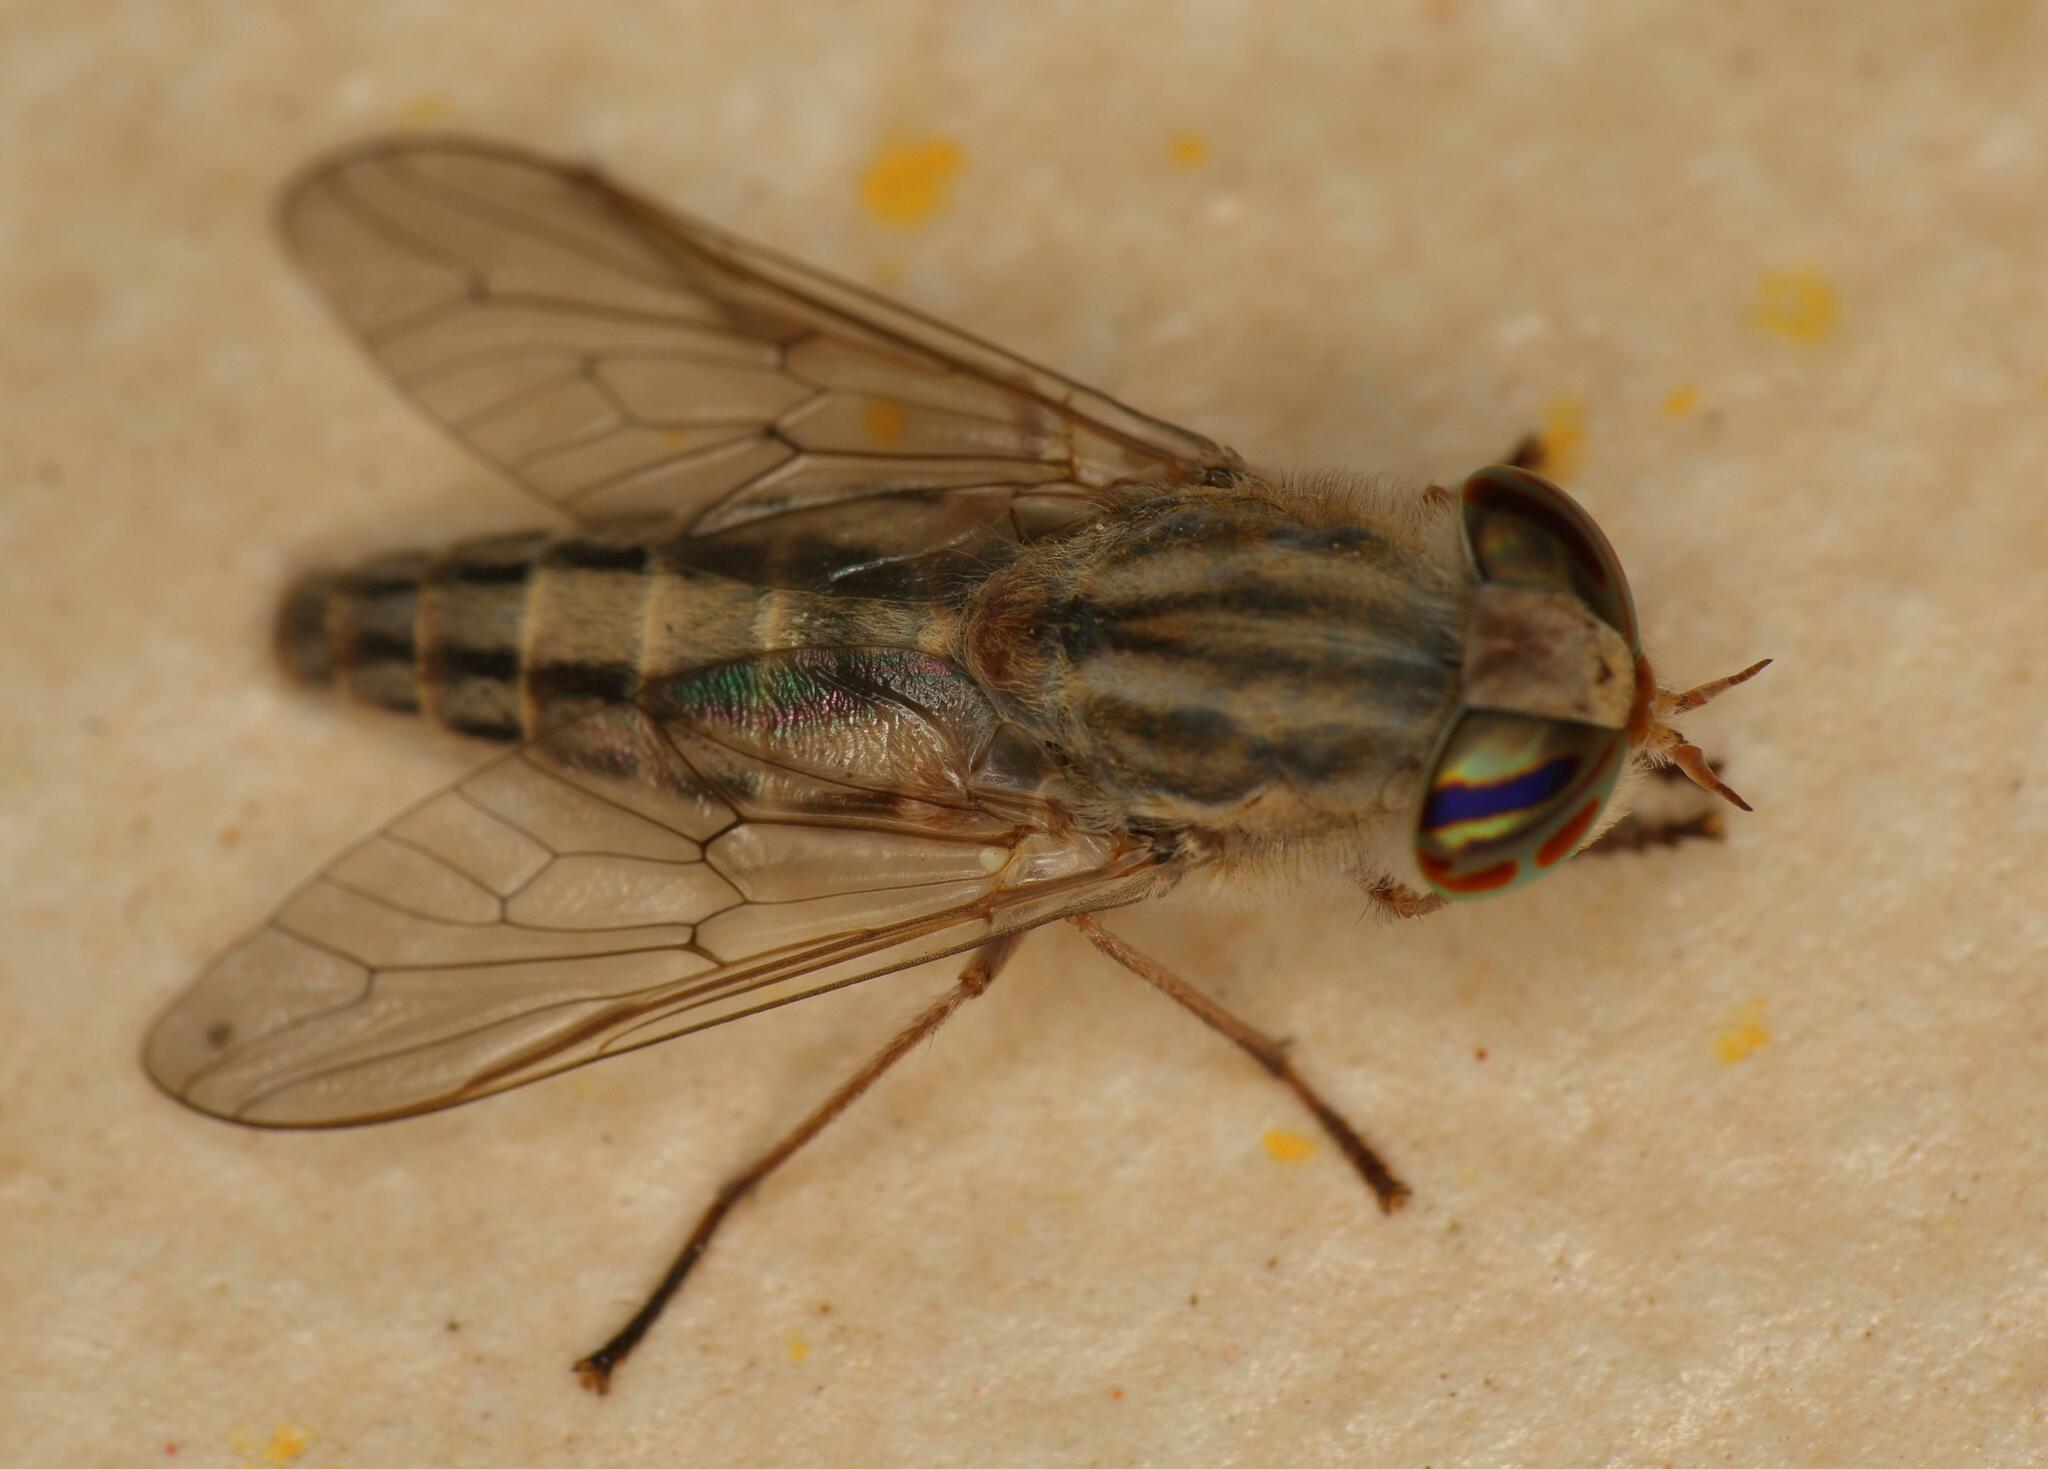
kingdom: Animalia
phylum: Arthropoda
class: Insecta
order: Diptera
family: Tabanidae
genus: Tabanus
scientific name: Tabanus gratus
